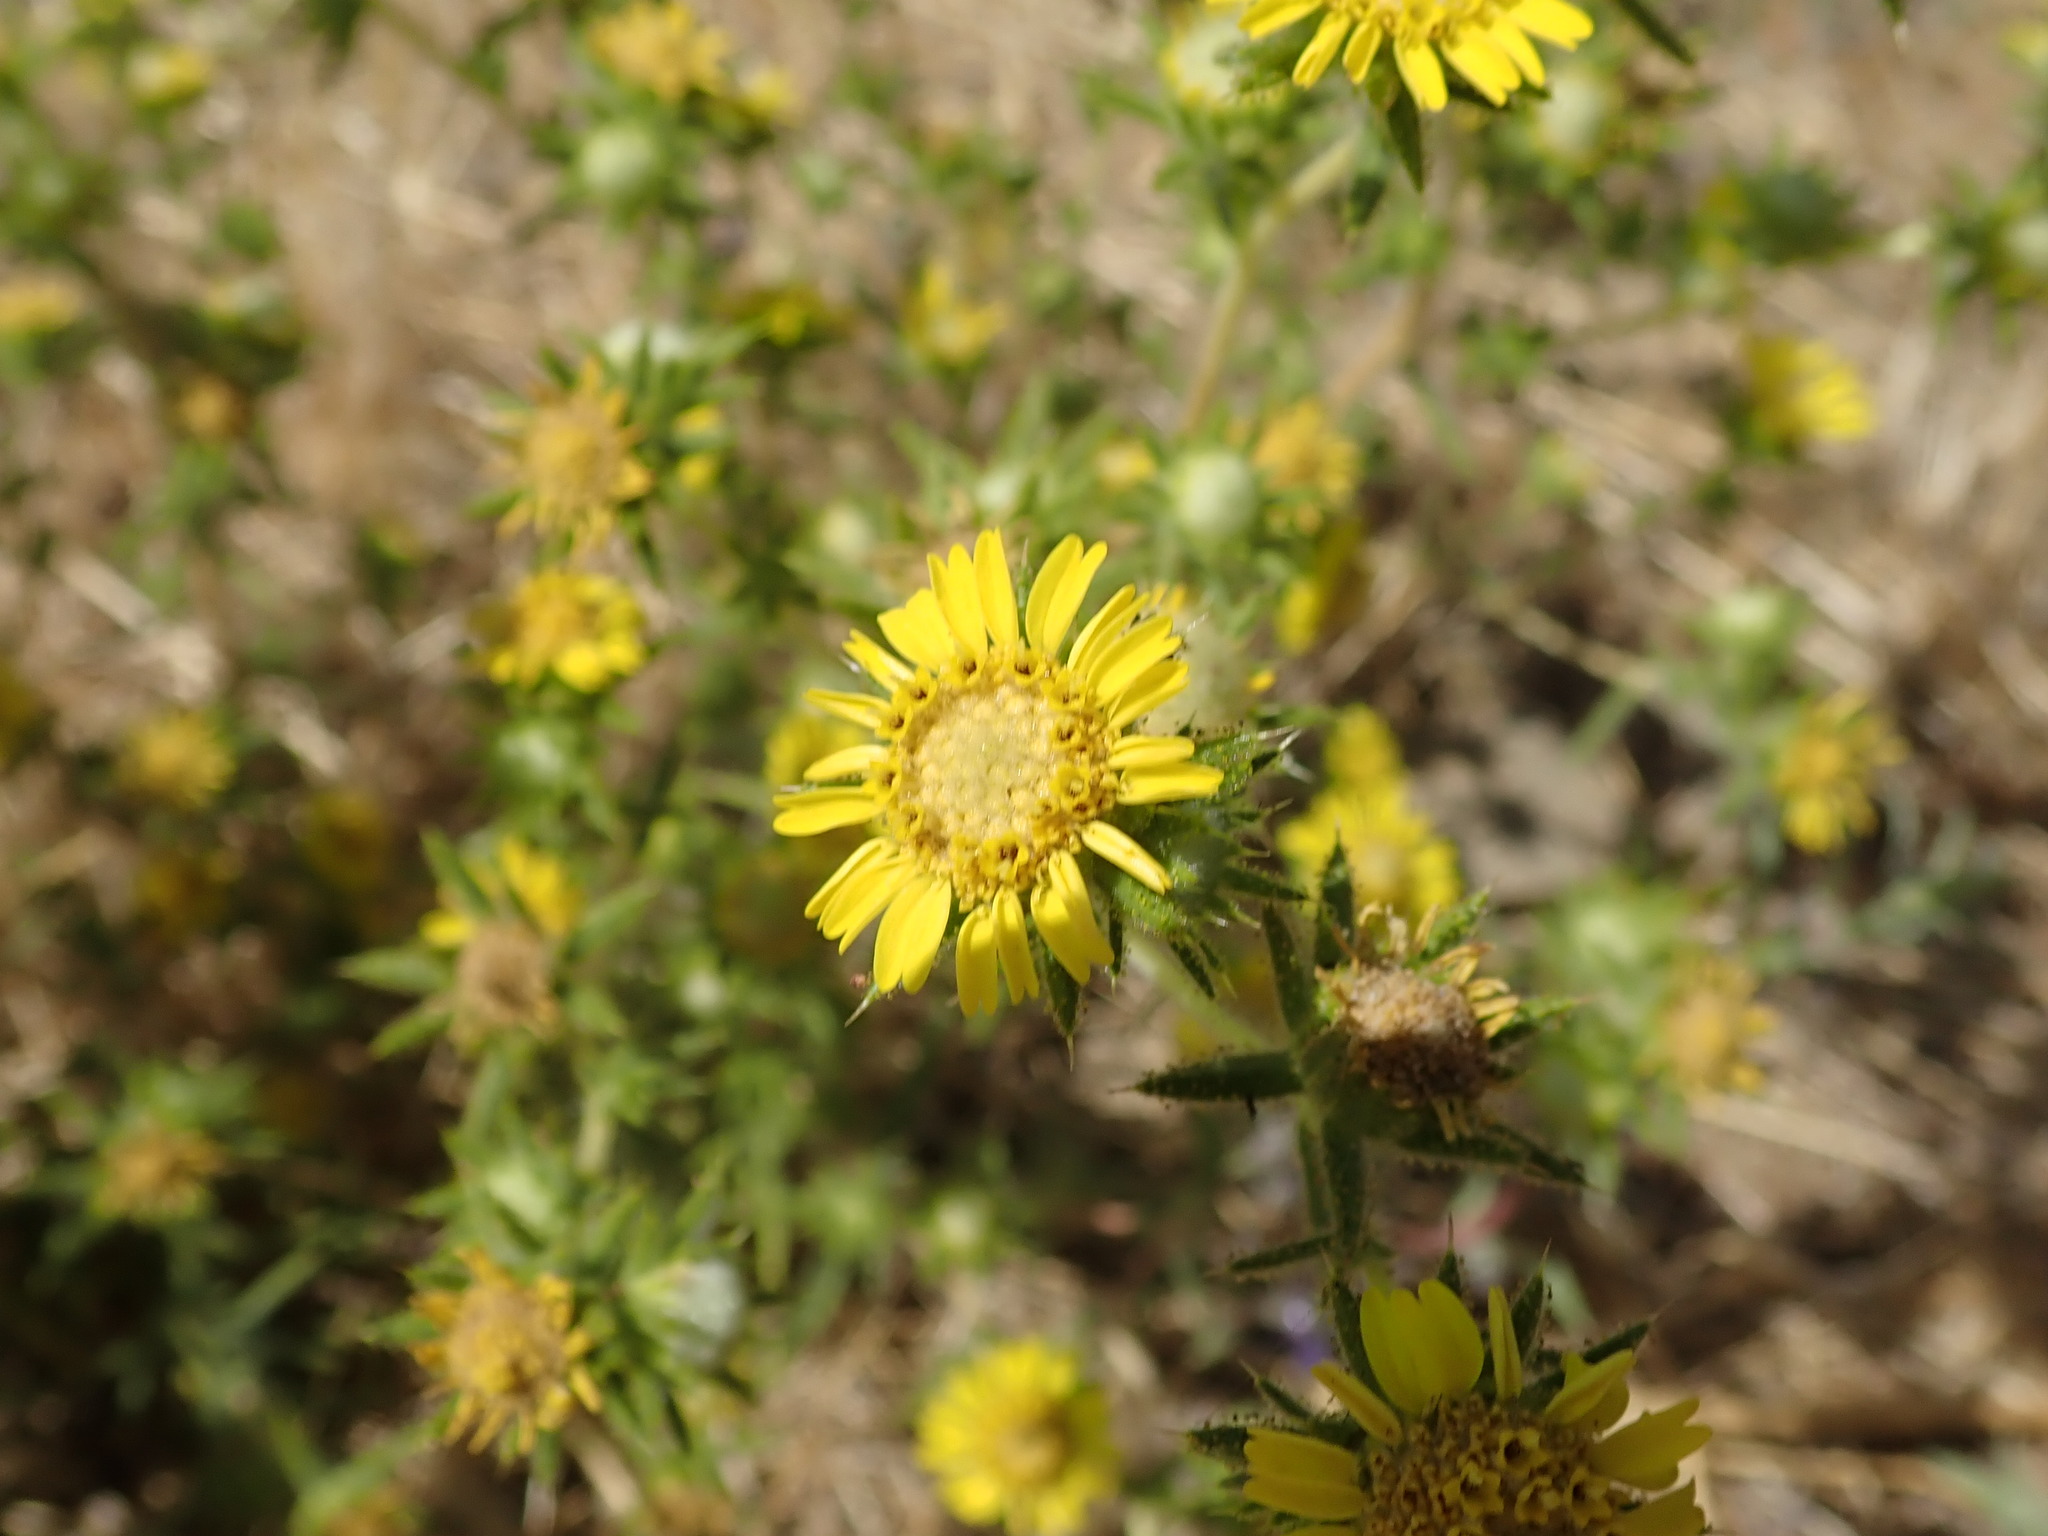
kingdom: Plantae
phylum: Tracheophyta
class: Magnoliopsida
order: Asterales
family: Asteraceae
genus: Centromadia
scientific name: Centromadia fitchii
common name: Fitch's spikeweed
